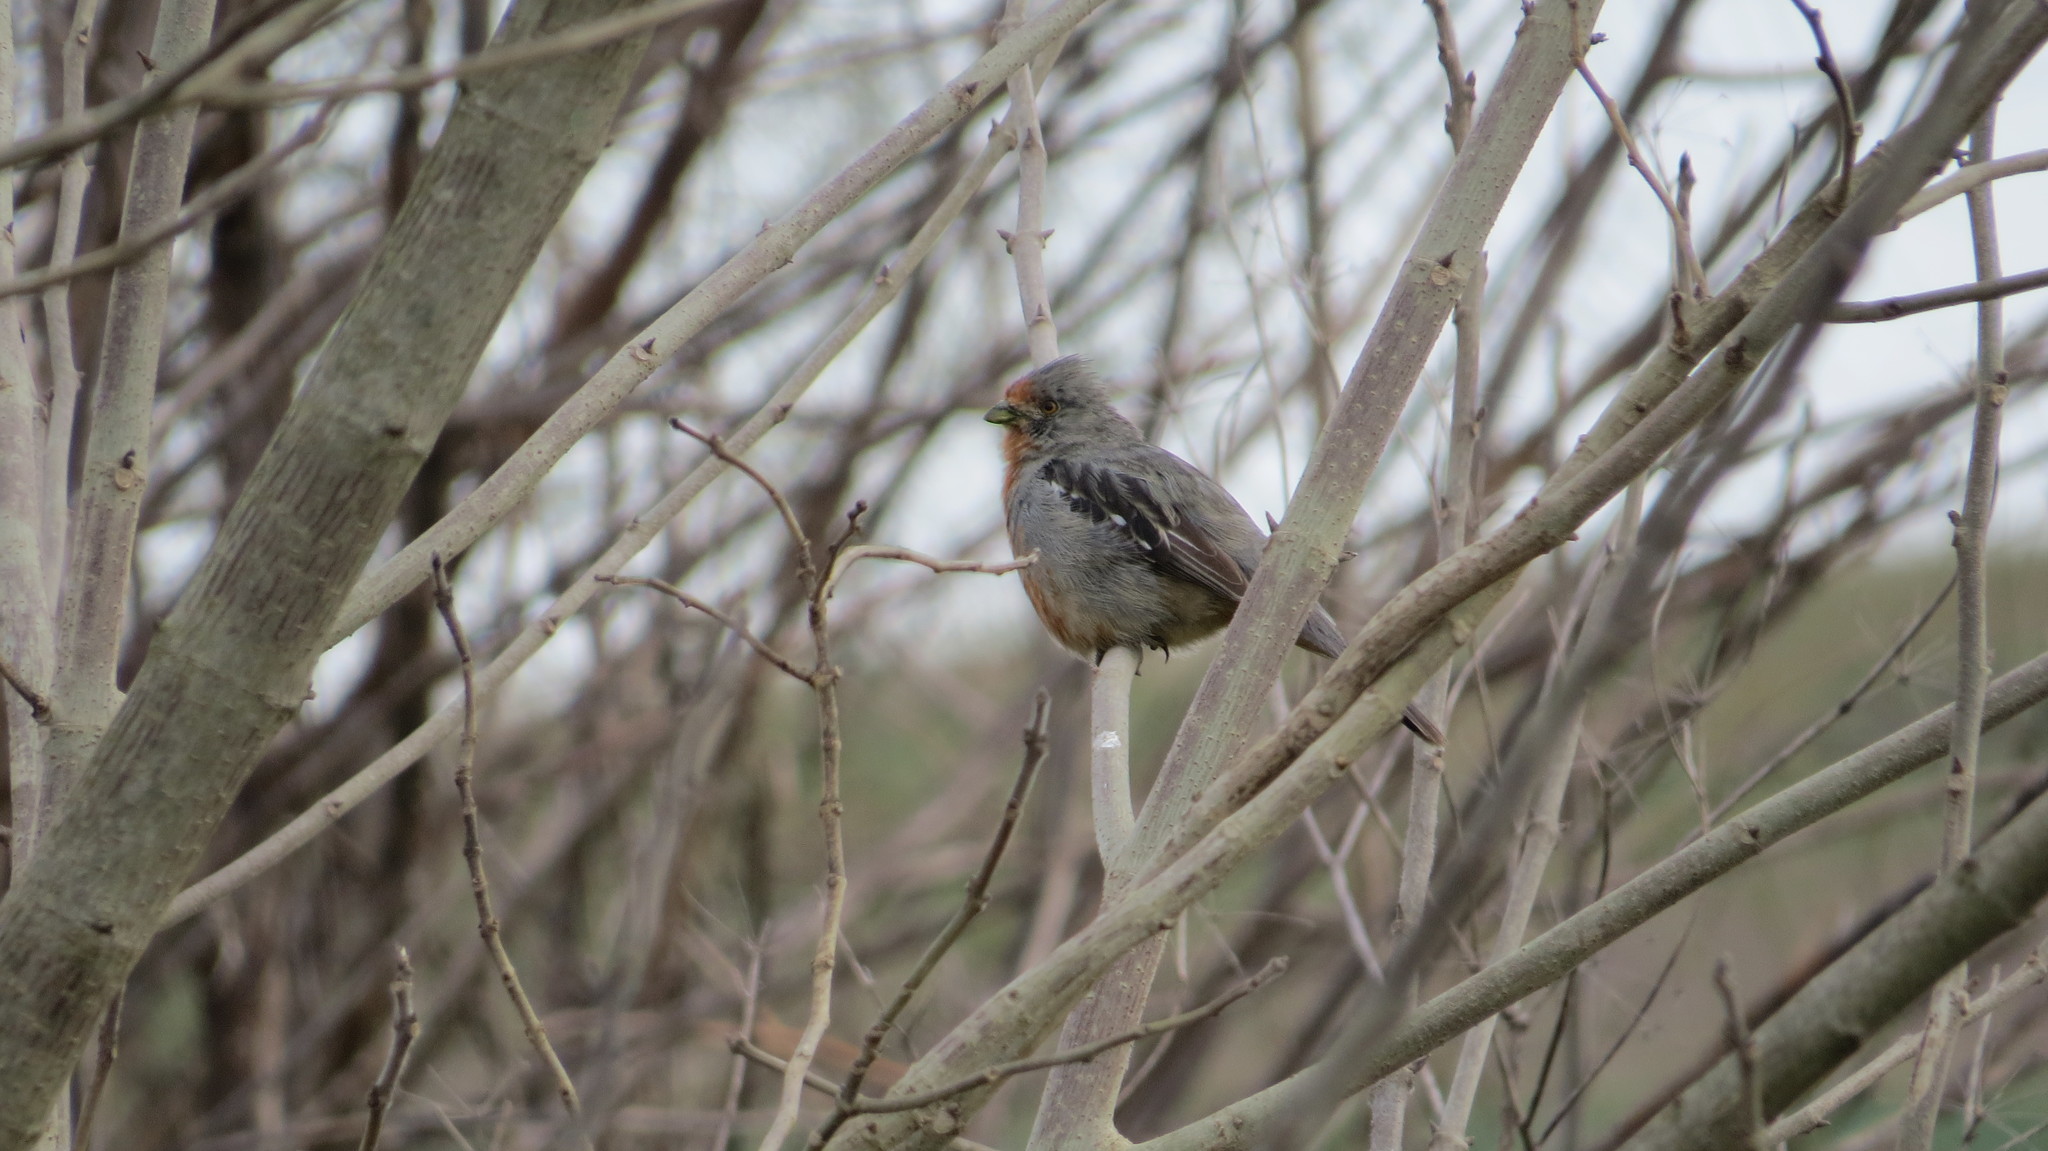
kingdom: Animalia
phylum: Chordata
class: Aves
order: Passeriformes
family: Cotingidae
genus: Phytotoma
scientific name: Phytotoma rutila
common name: White-tipped plantcutter
